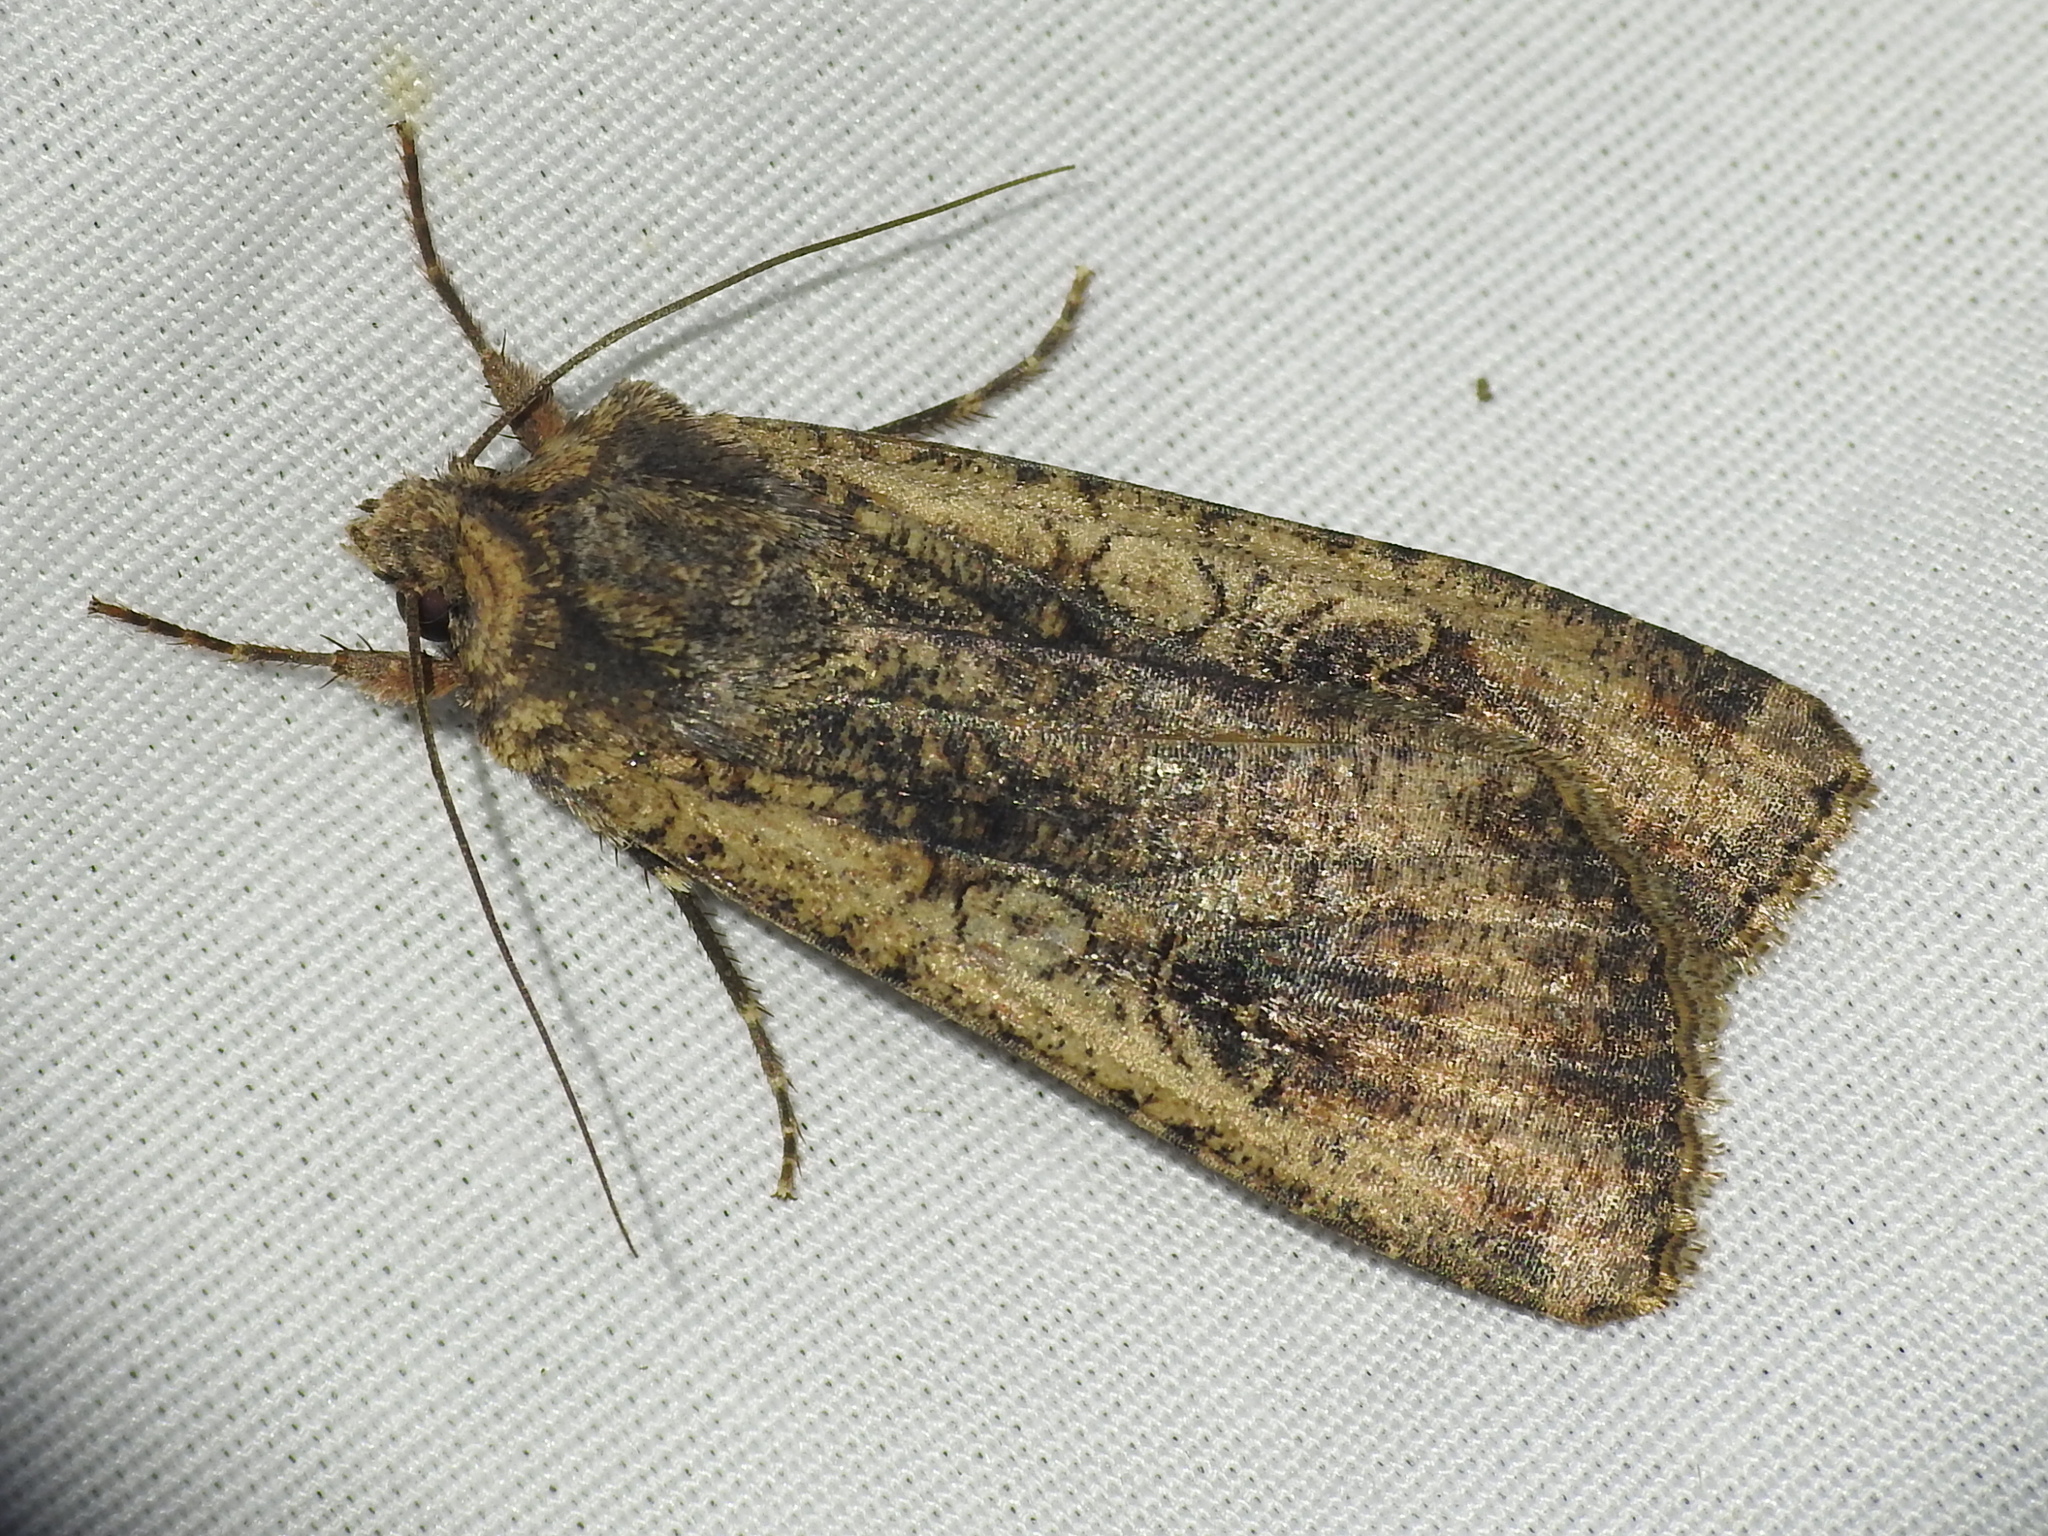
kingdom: Animalia
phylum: Arthropoda
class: Insecta
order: Lepidoptera
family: Noctuidae
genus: Peridroma
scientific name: Peridroma saucia
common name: Pearly underwing
